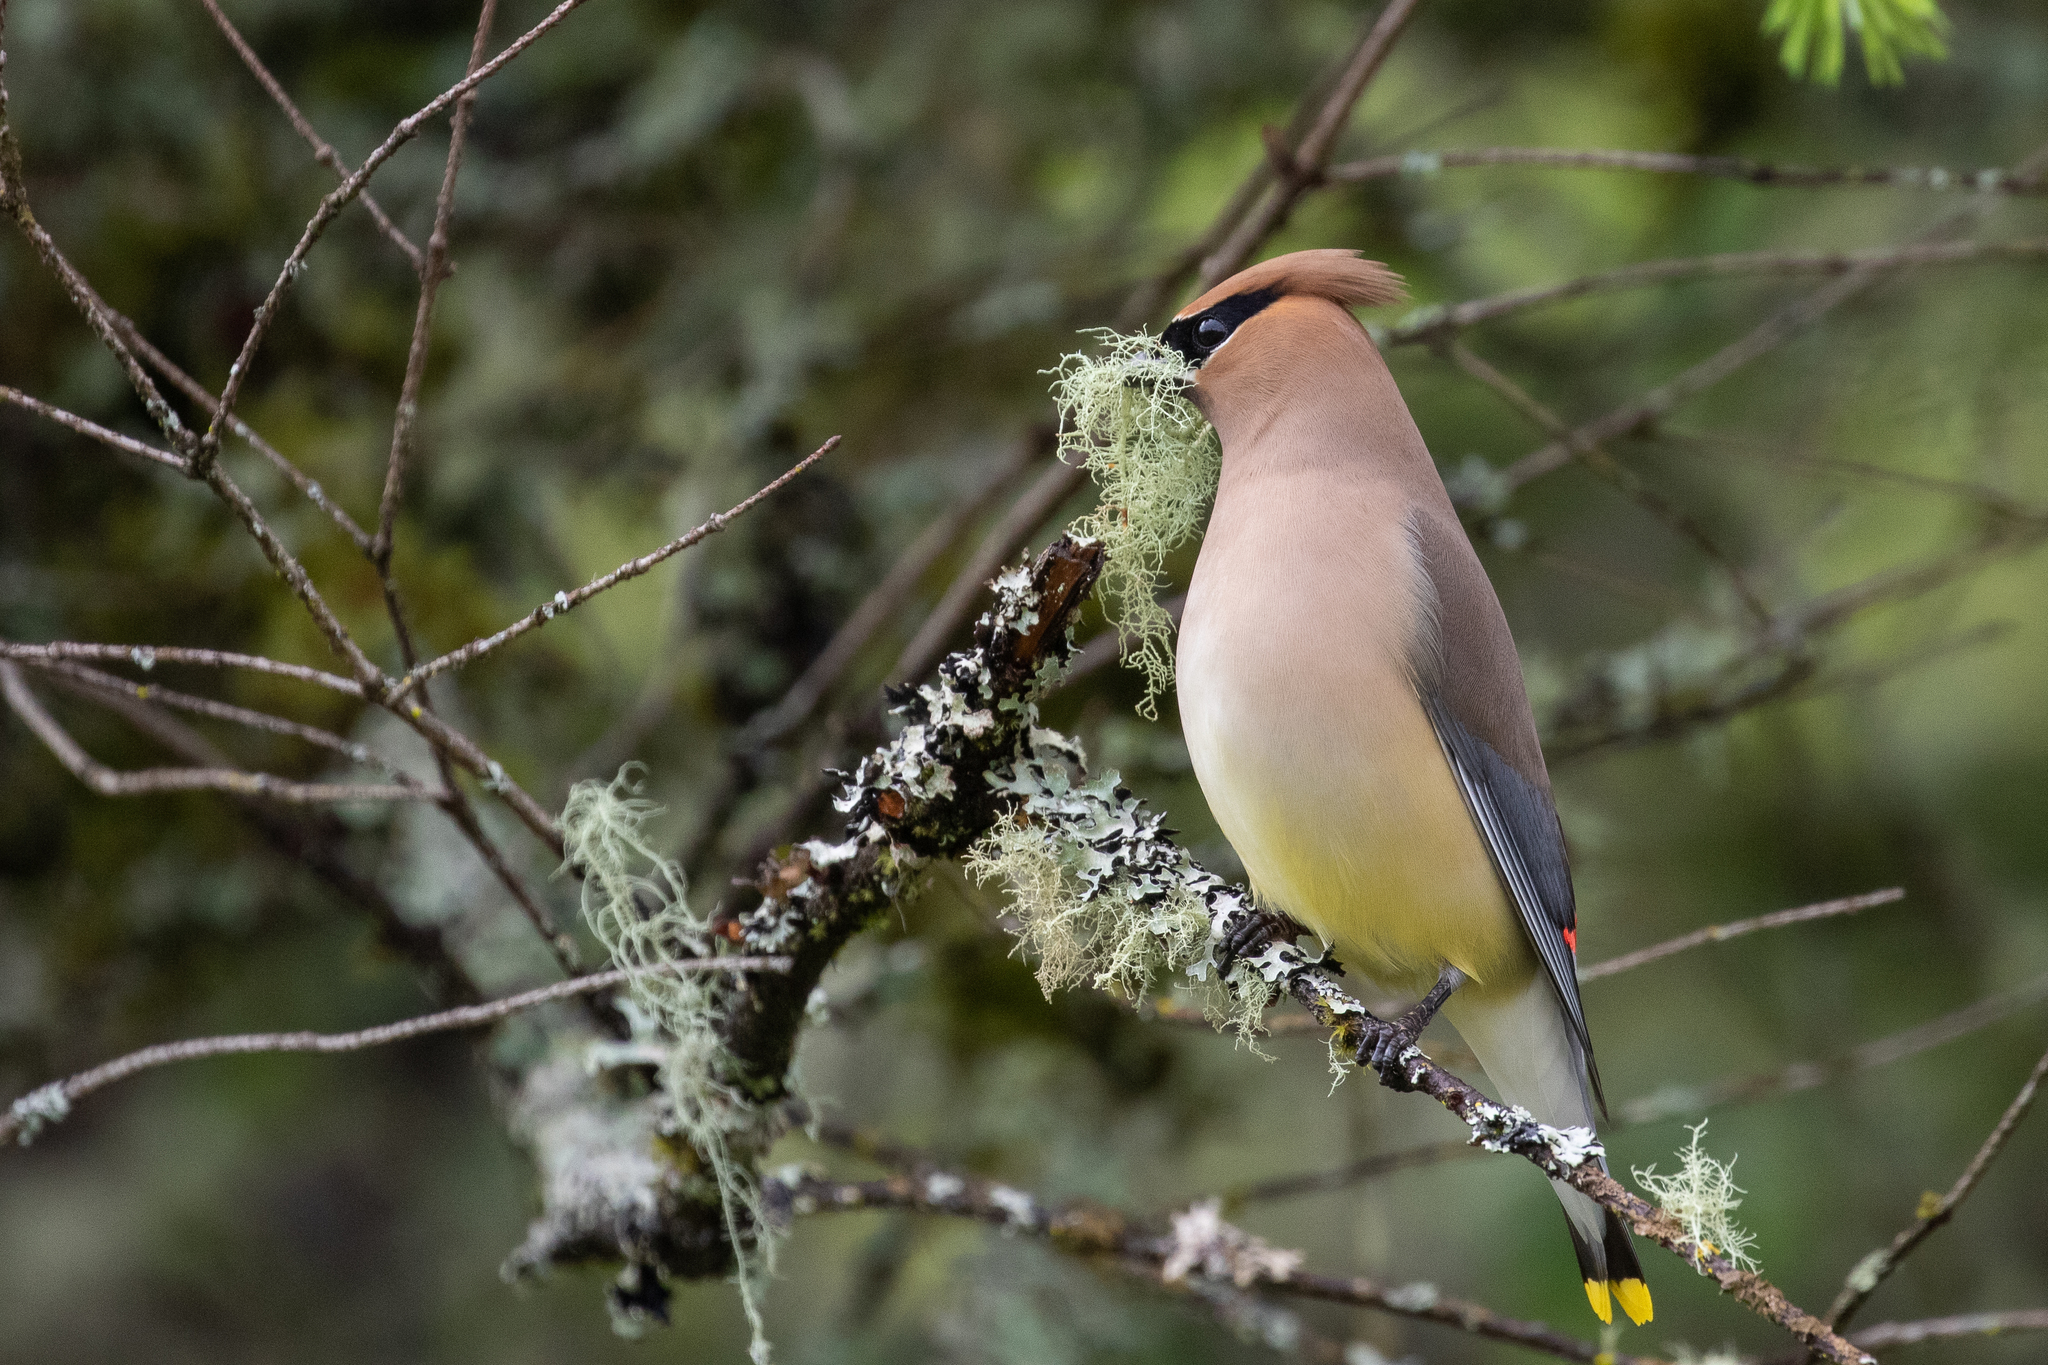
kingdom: Animalia
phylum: Chordata
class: Aves
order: Passeriformes
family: Bombycillidae
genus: Bombycilla
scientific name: Bombycilla cedrorum
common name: Cedar waxwing
